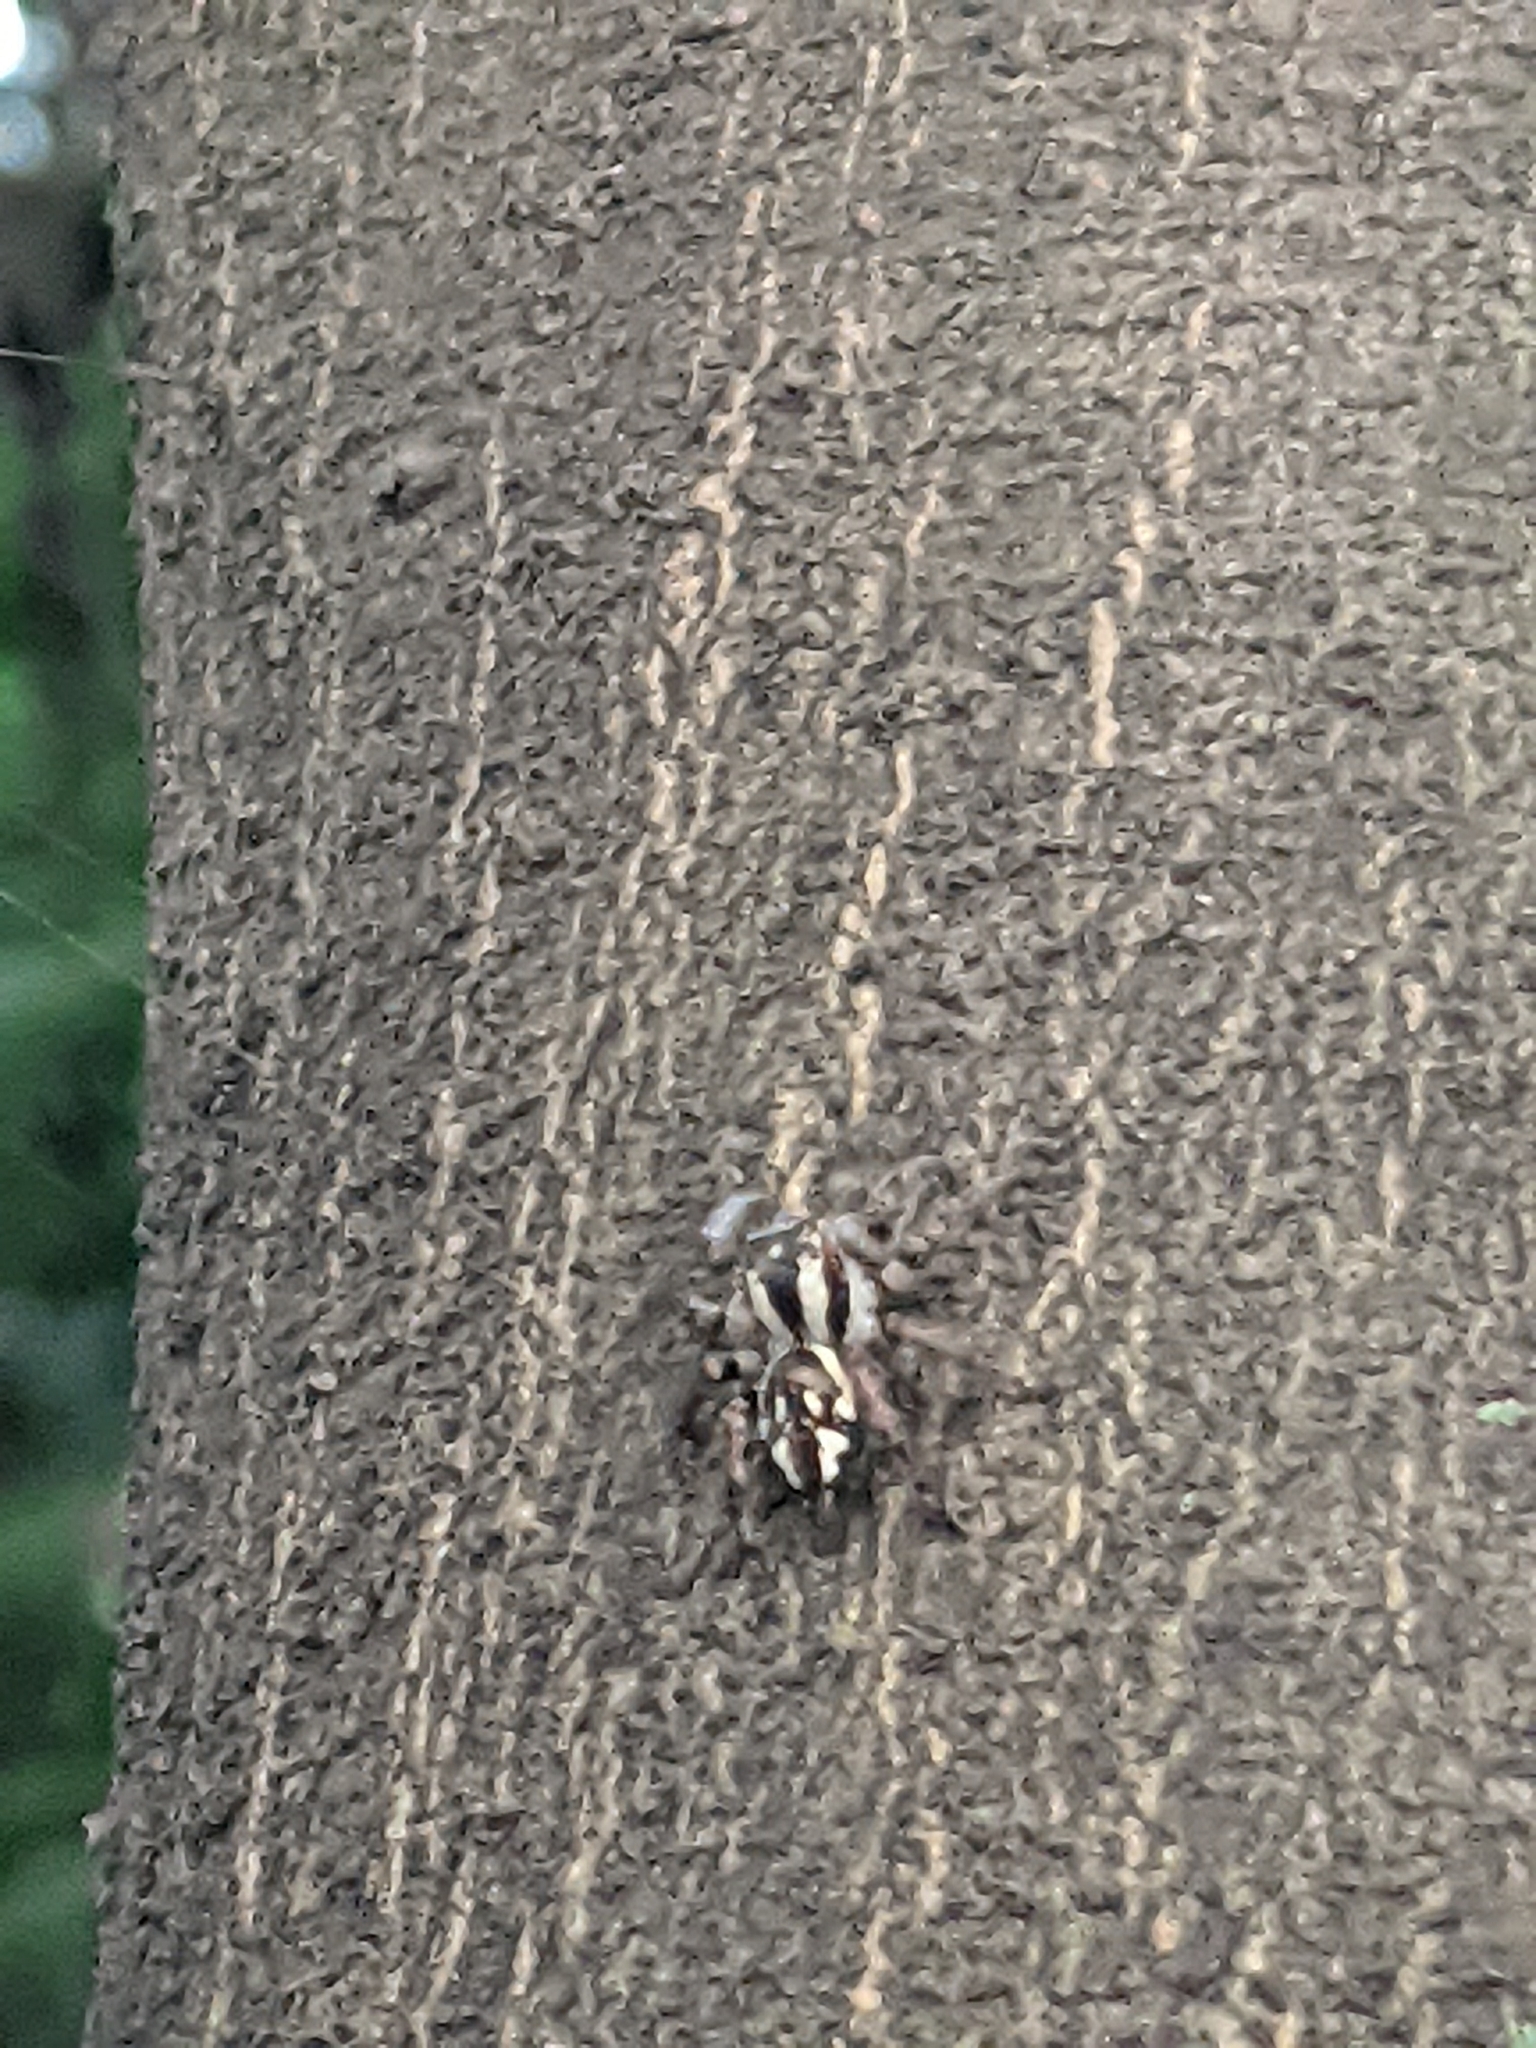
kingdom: Animalia
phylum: Arthropoda
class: Arachnida
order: Araneae
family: Salticidae
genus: Carrhotus
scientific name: Carrhotus viduus
